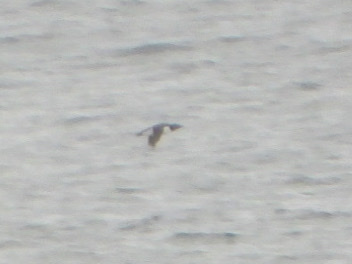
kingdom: Animalia
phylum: Chordata
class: Aves
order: Charadriiformes
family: Alcidae
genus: Uria
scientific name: Uria aalge
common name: Common murre
